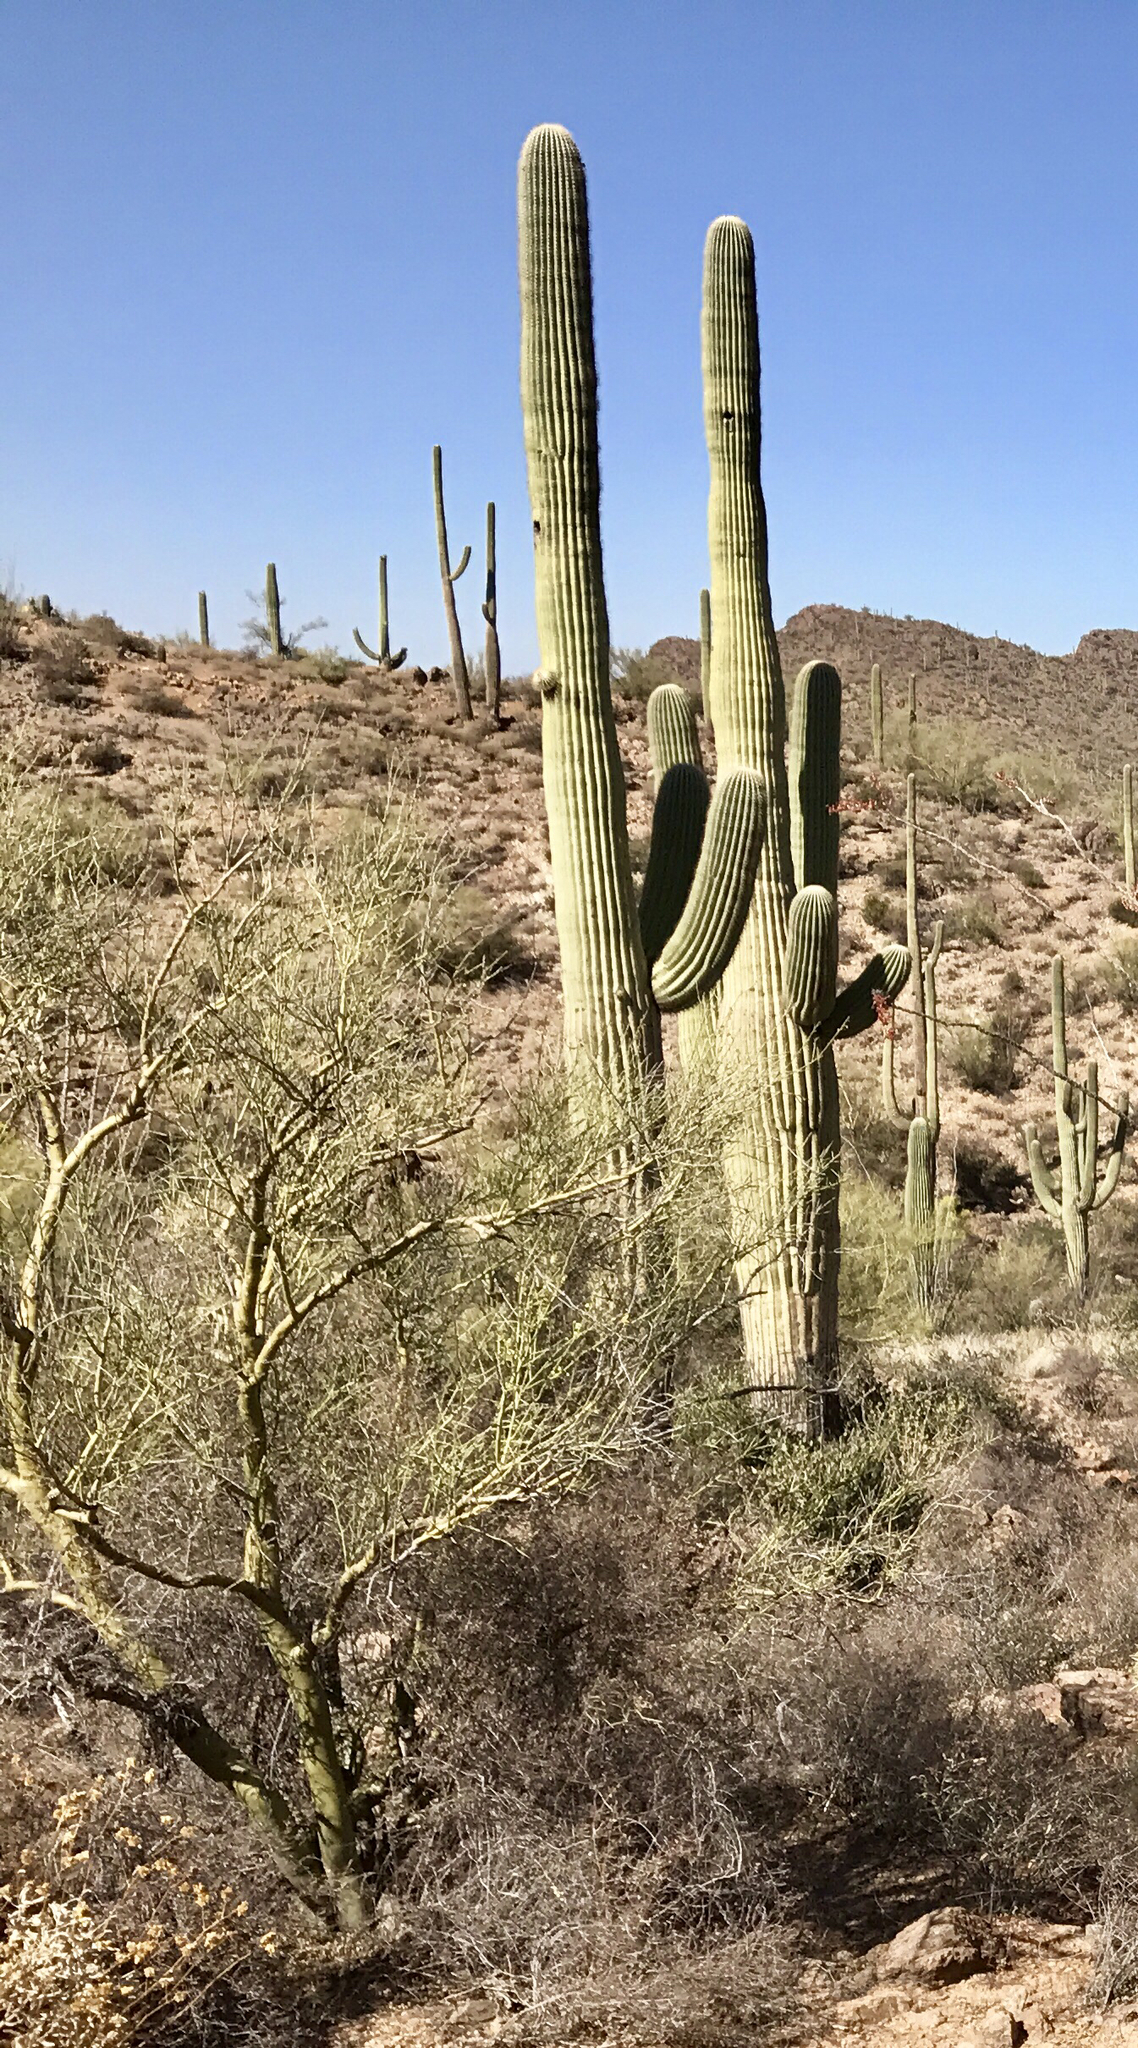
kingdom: Plantae
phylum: Tracheophyta
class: Magnoliopsida
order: Fabales
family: Fabaceae
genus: Parkinsonia
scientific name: Parkinsonia microphylla
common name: Yellow paloverde
